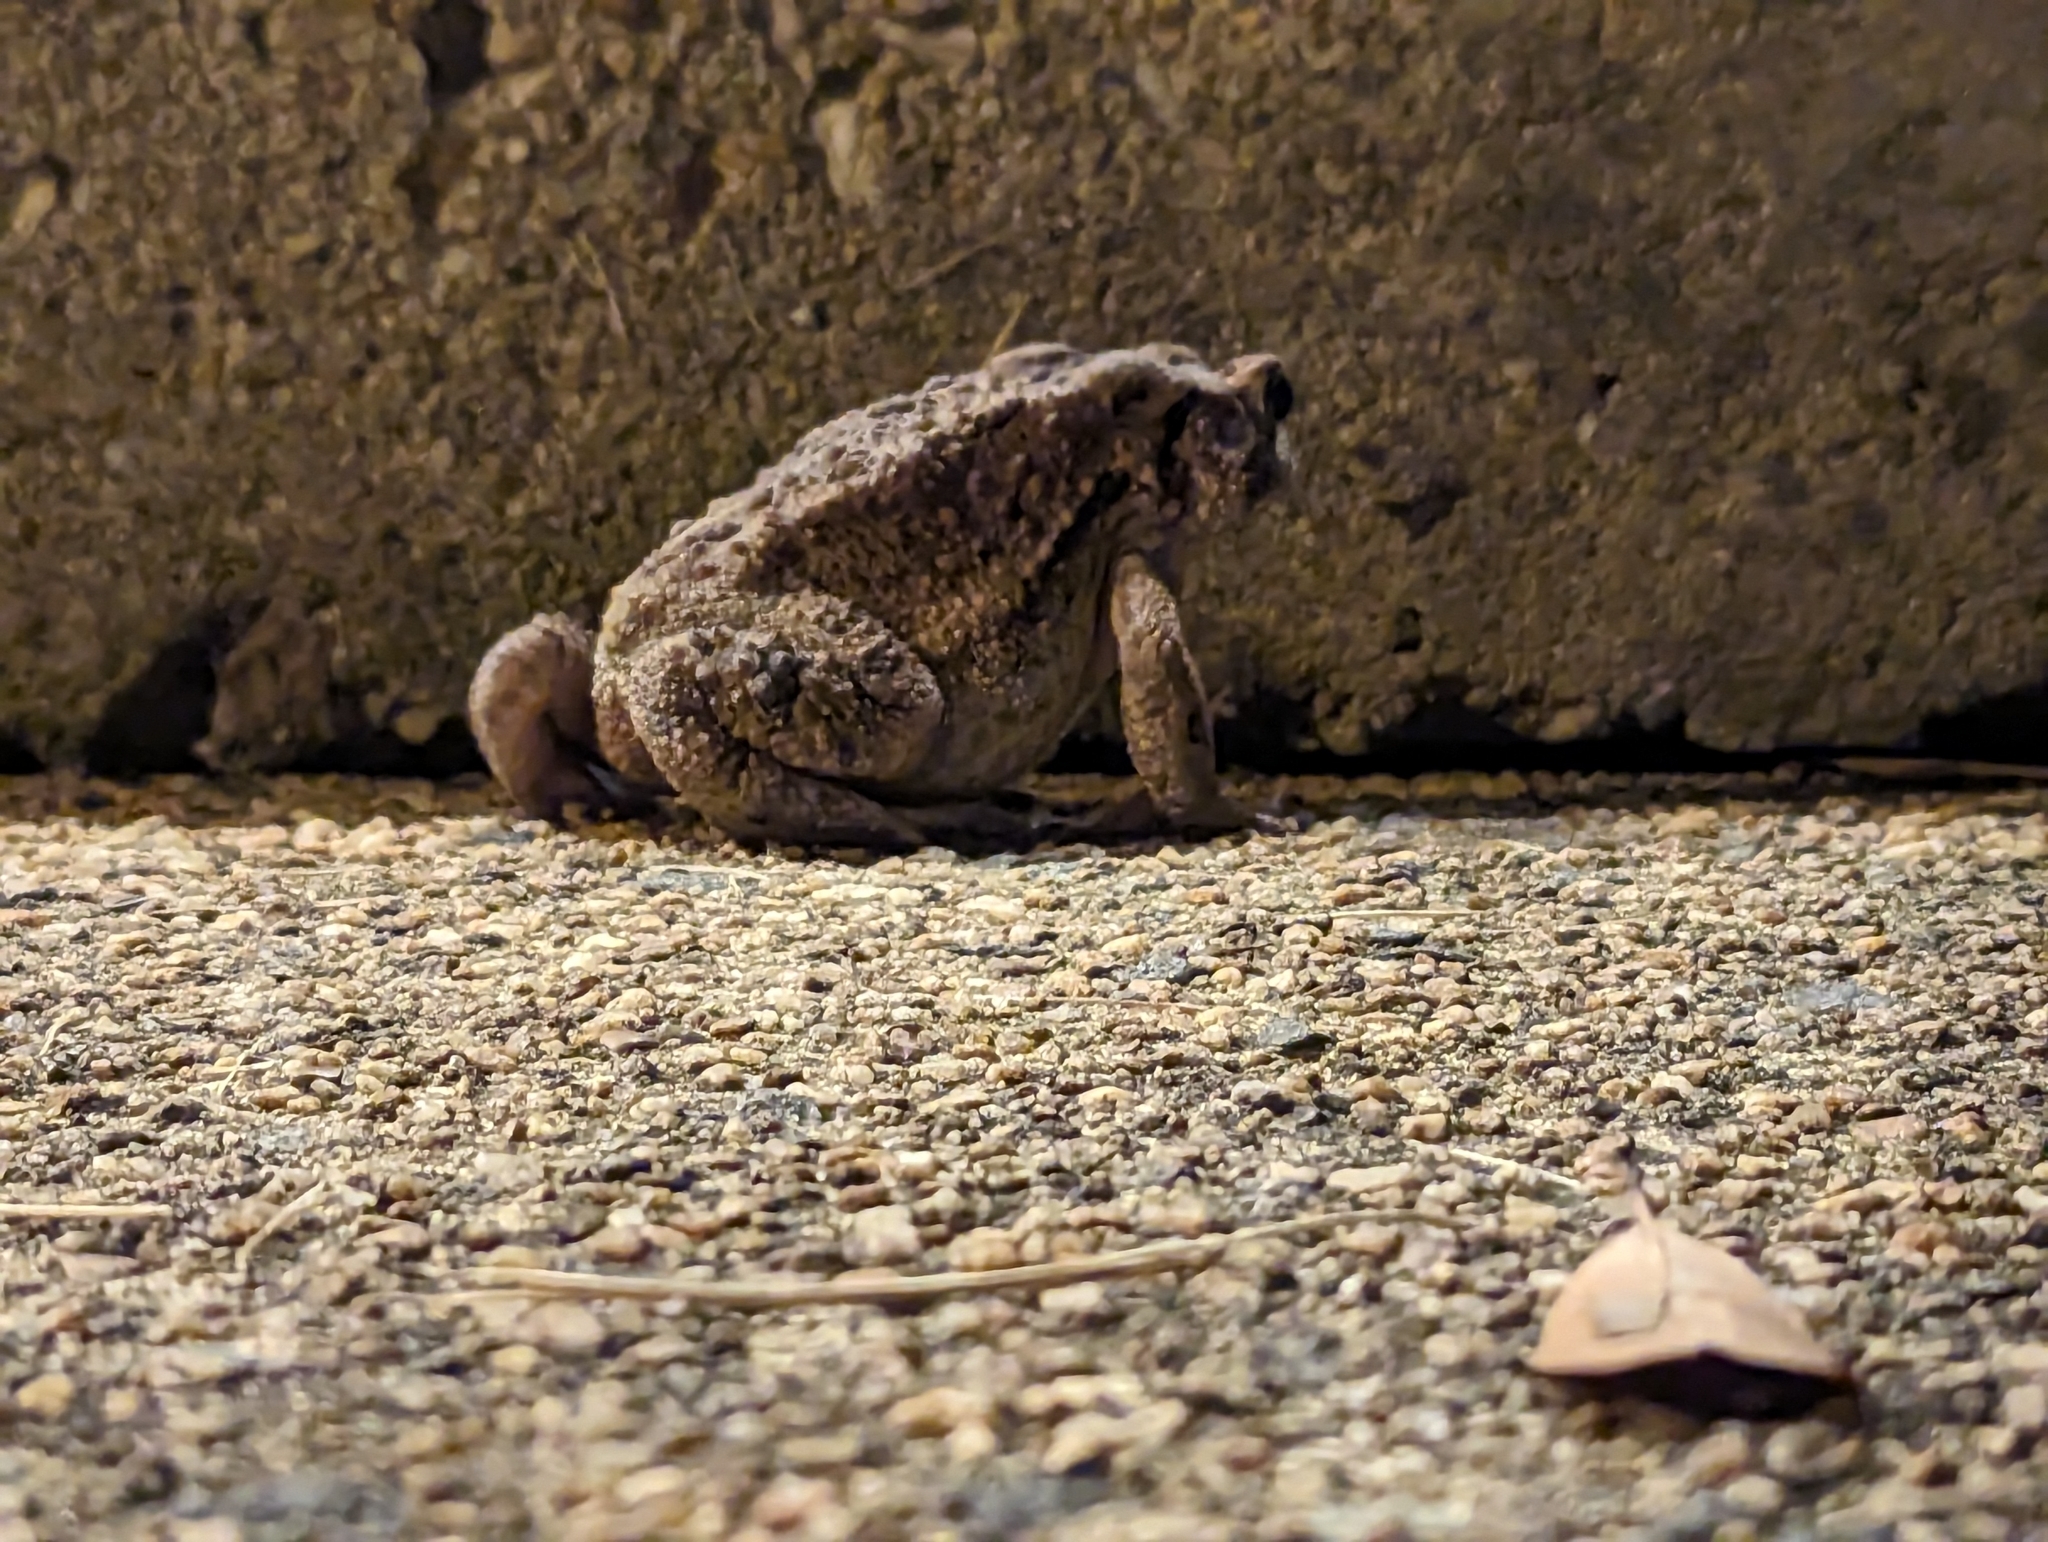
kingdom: Animalia
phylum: Chordata
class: Amphibia
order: Anura
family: Bufonidae
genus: Anaxyrus
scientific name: Anaxyrus americanus
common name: American toad
